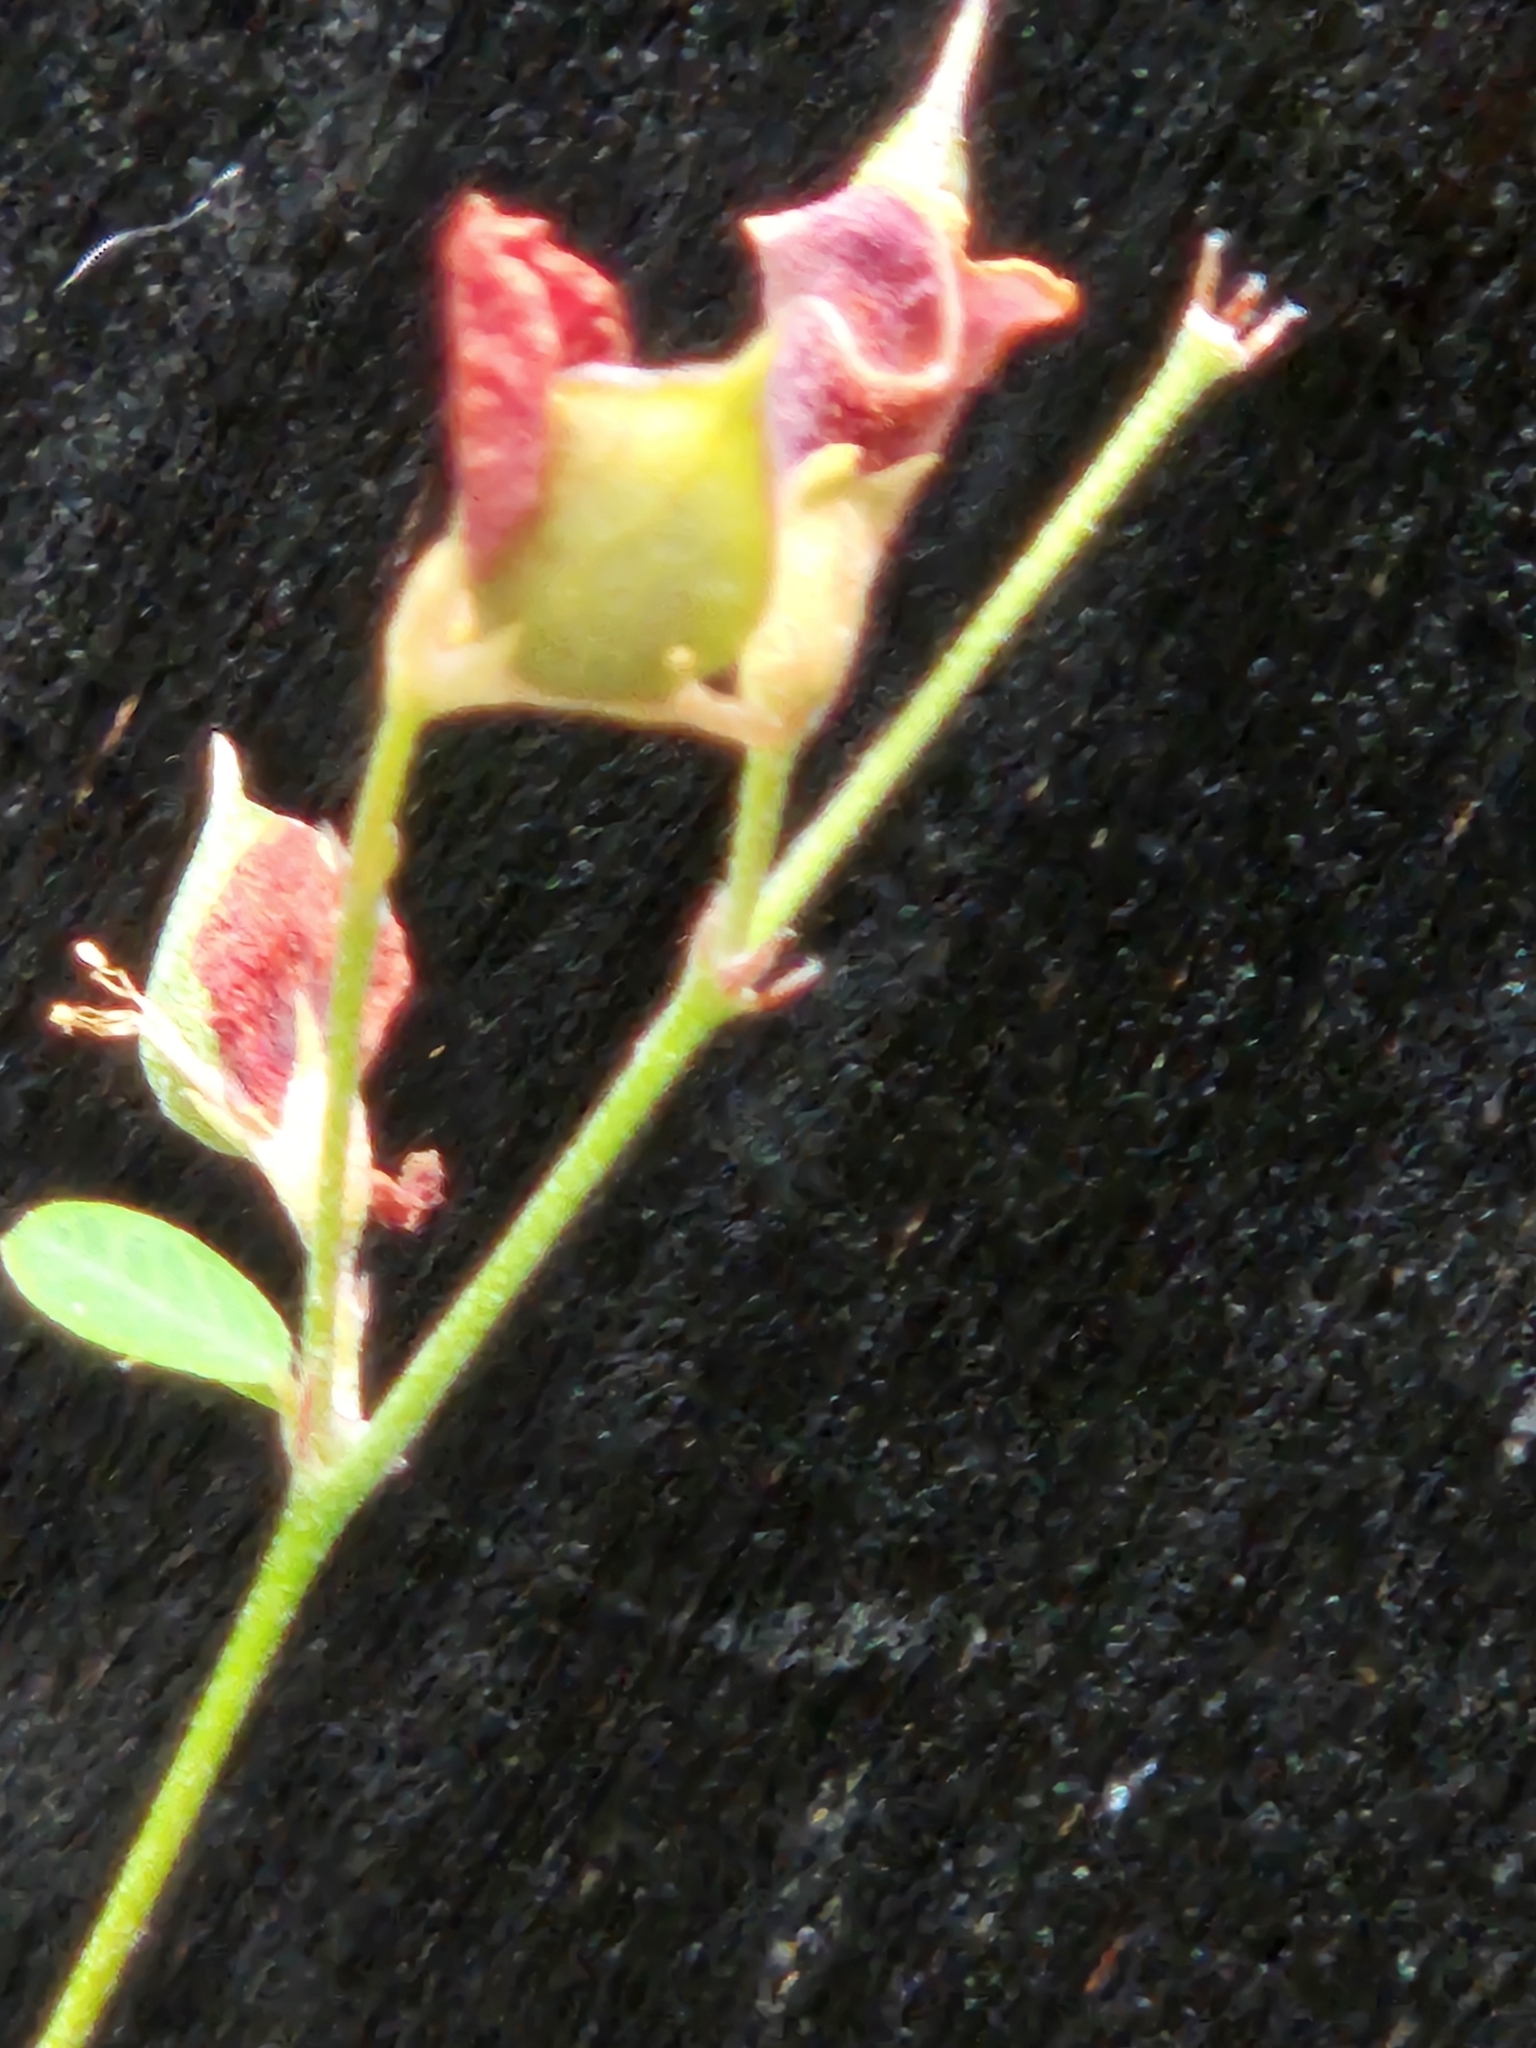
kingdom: Plantae
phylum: Tracheophyta
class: Magnoliopsida
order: Fabales
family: Fabaceae
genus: Lespedeza
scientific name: Lespedeza texana
